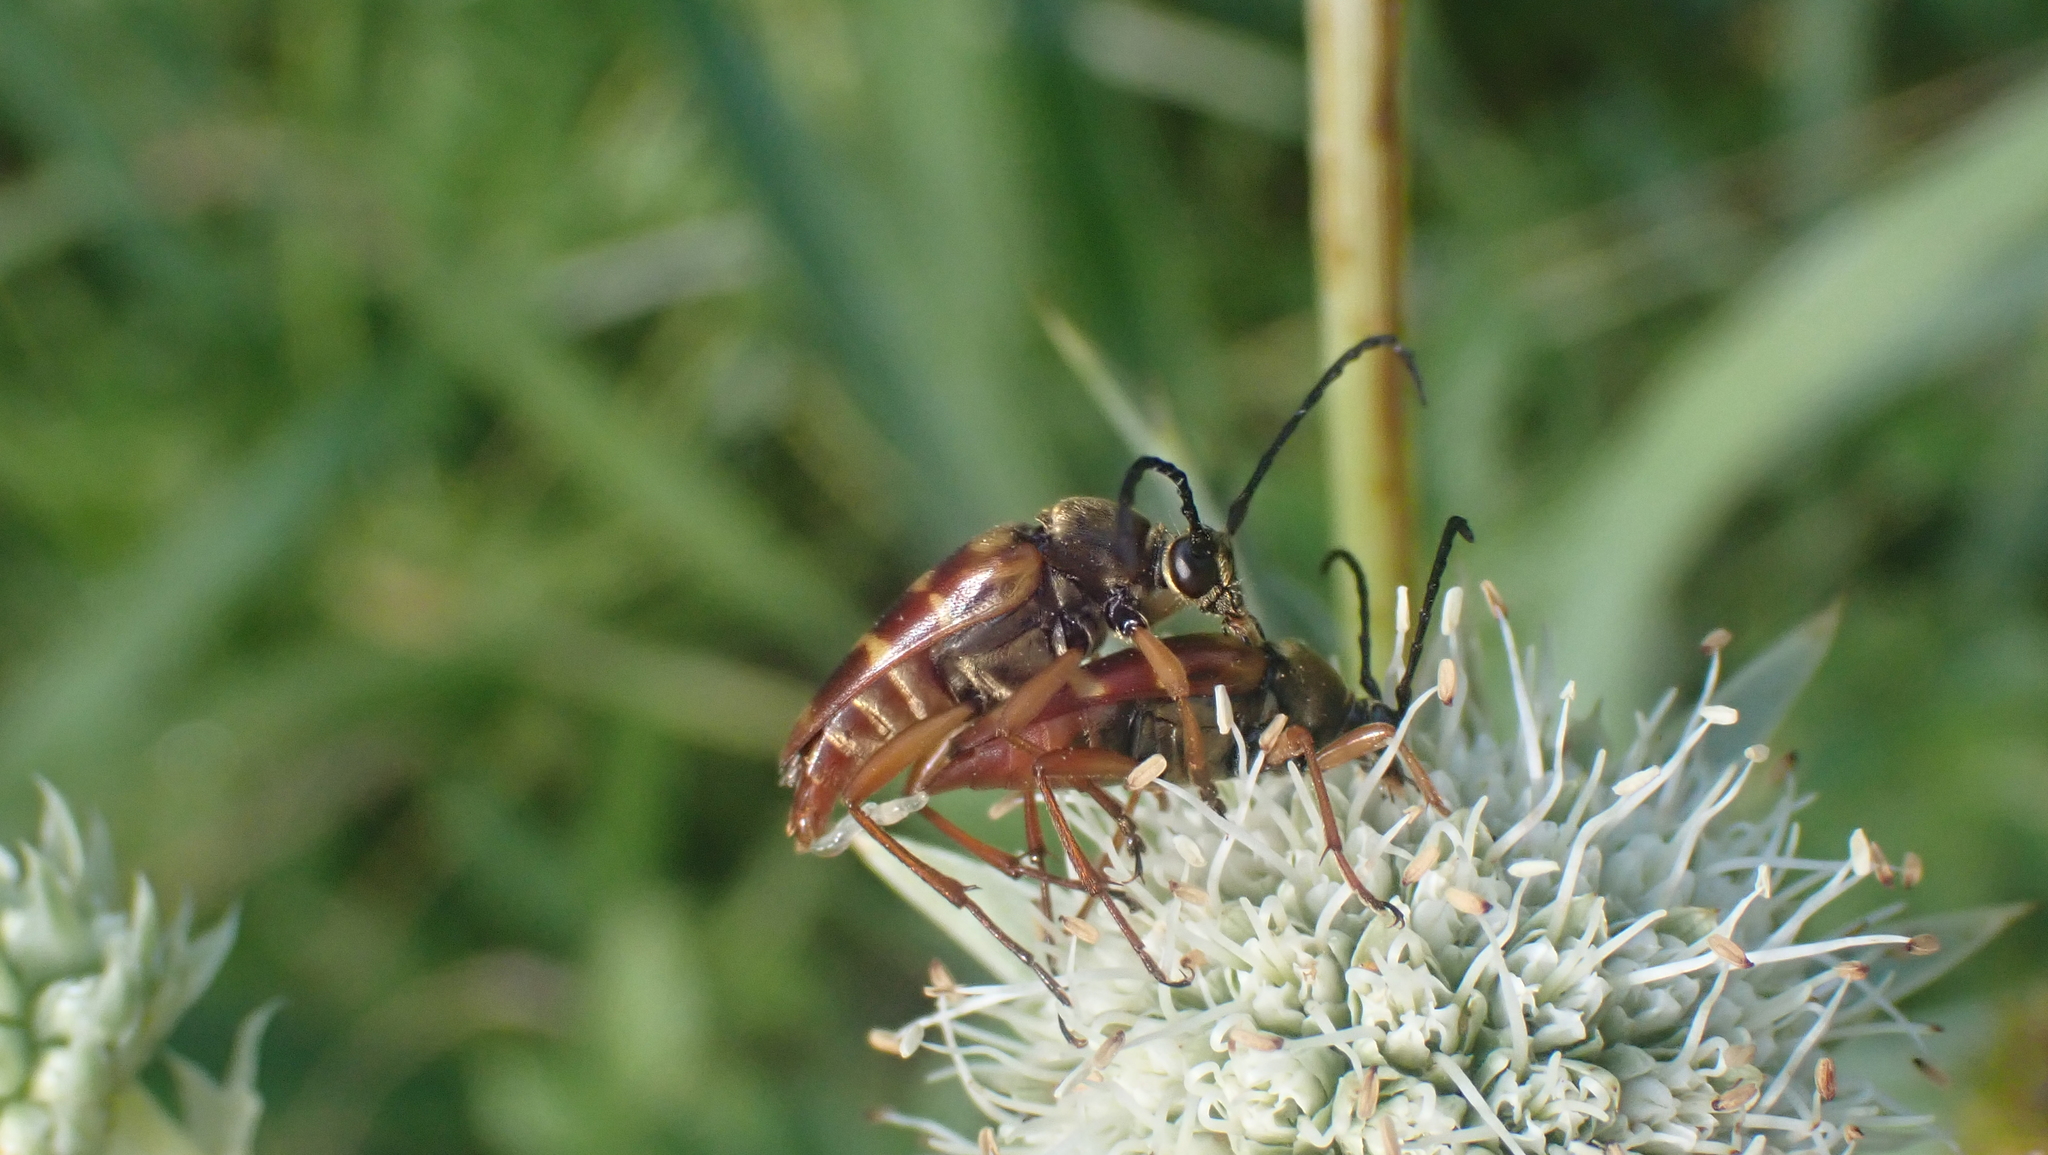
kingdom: Animalia
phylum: Arthropoda
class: Insecta
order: Coleoptera
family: Cerambycidae
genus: Typocerus
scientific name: Typocerus velutinus
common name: Banded longhorn beetle
